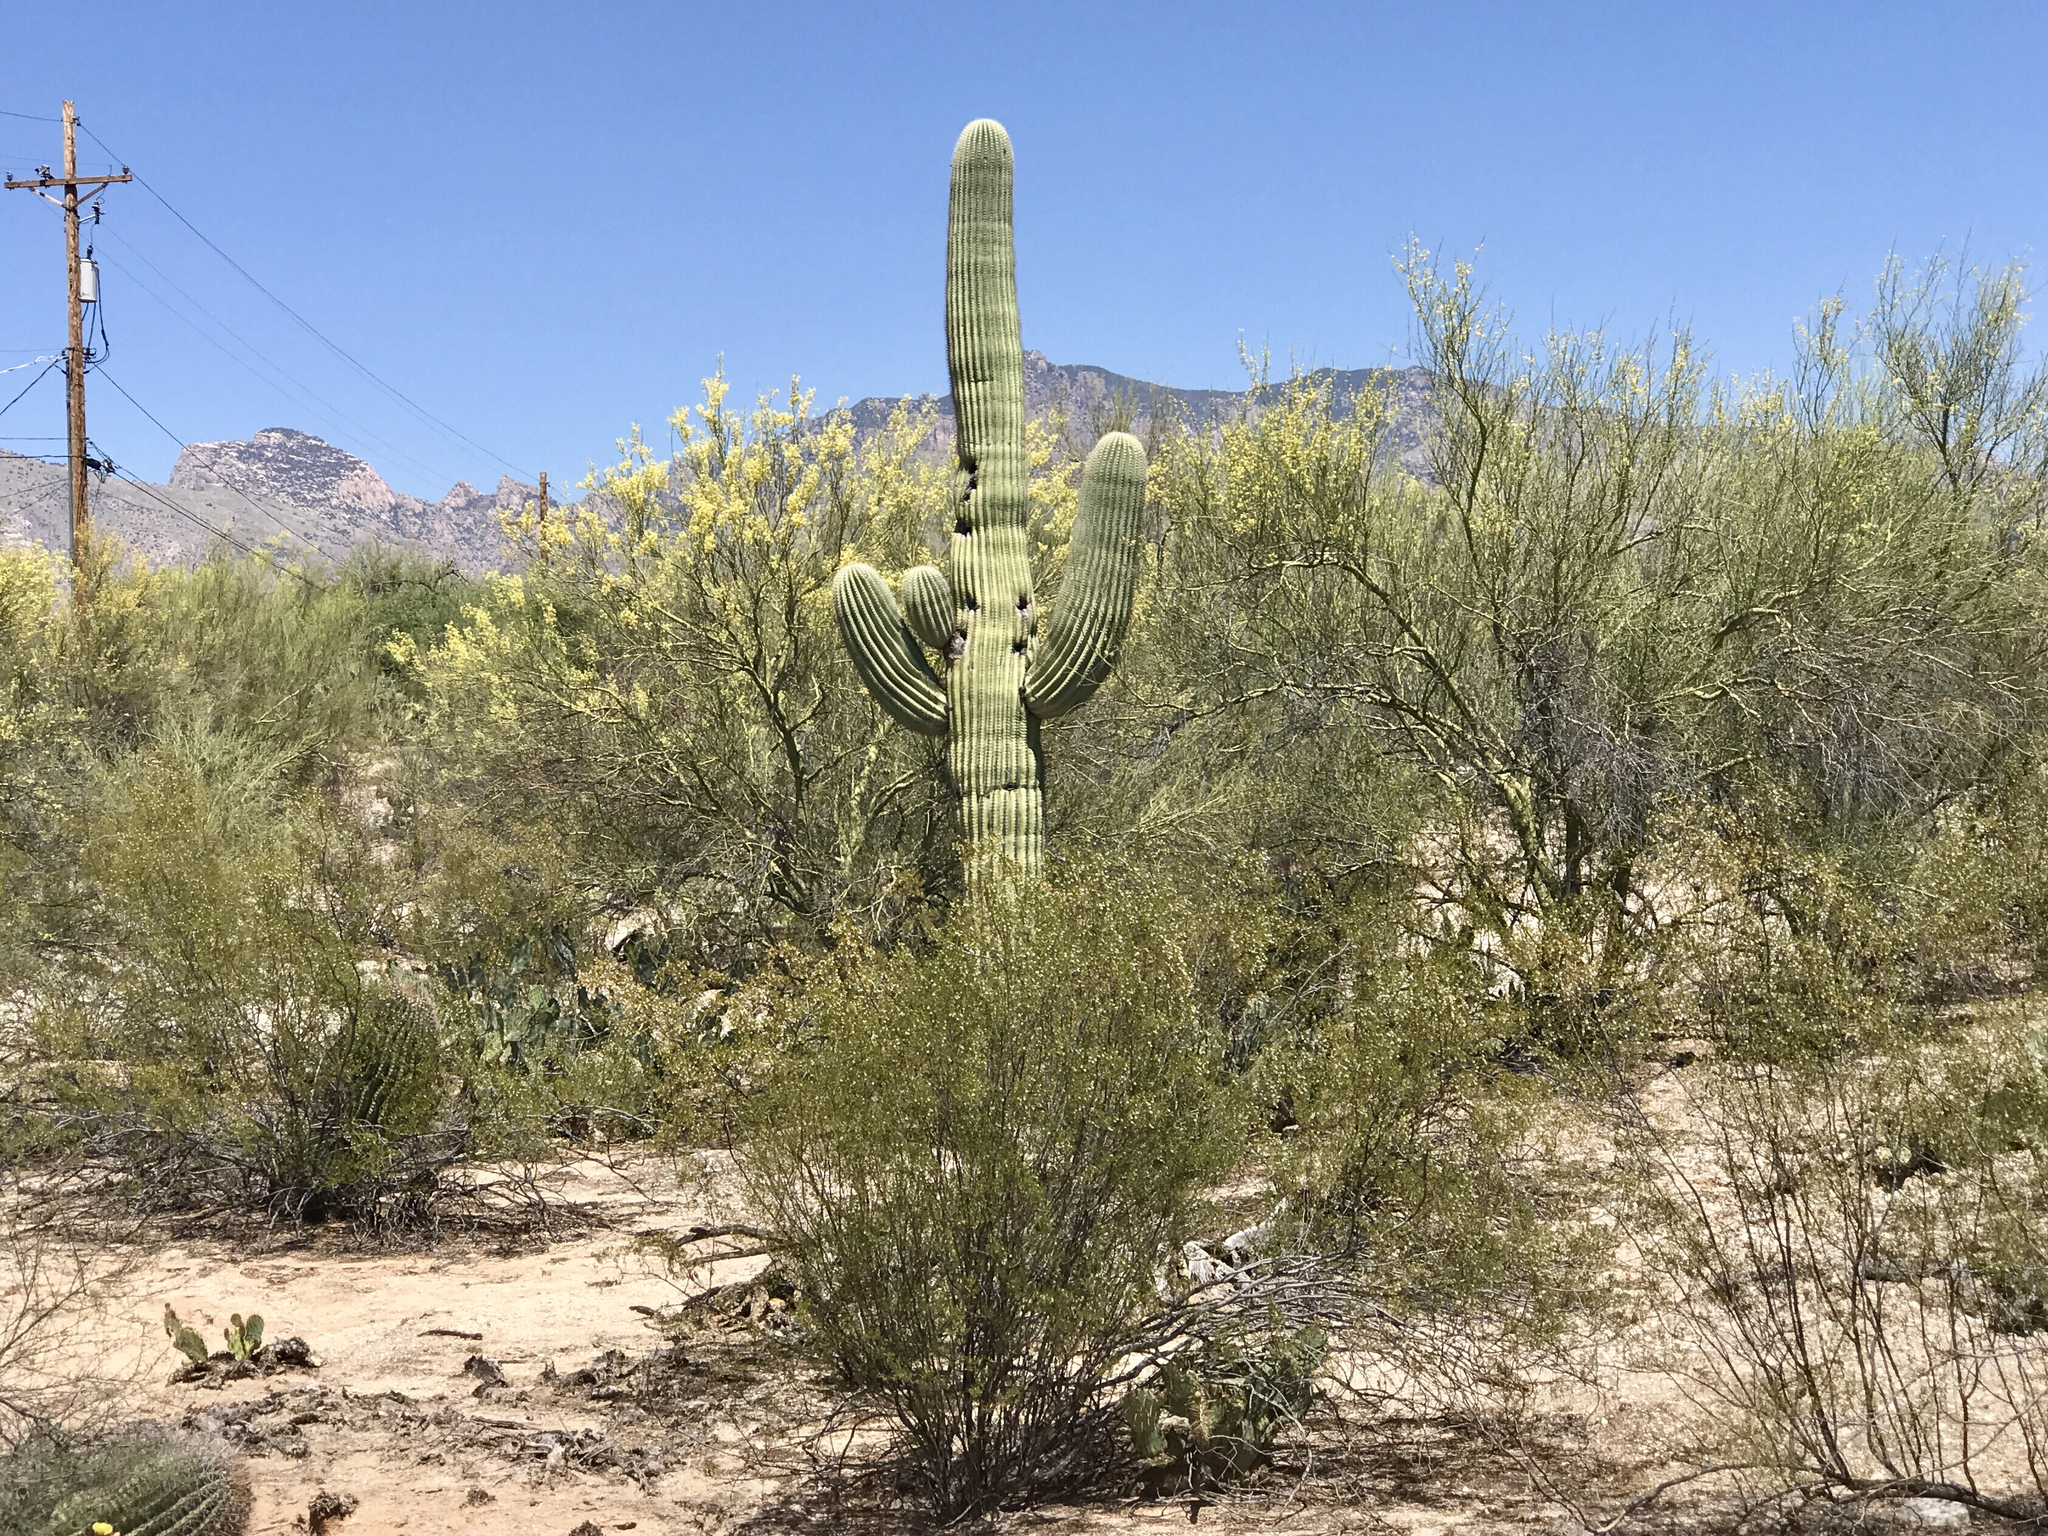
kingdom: Plantae
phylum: Tracheophyta
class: Magnoliopsida
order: Caryophyllales
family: Cactaceae
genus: Carnegiea
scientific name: Carnegiea gigantea
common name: Saguaro
